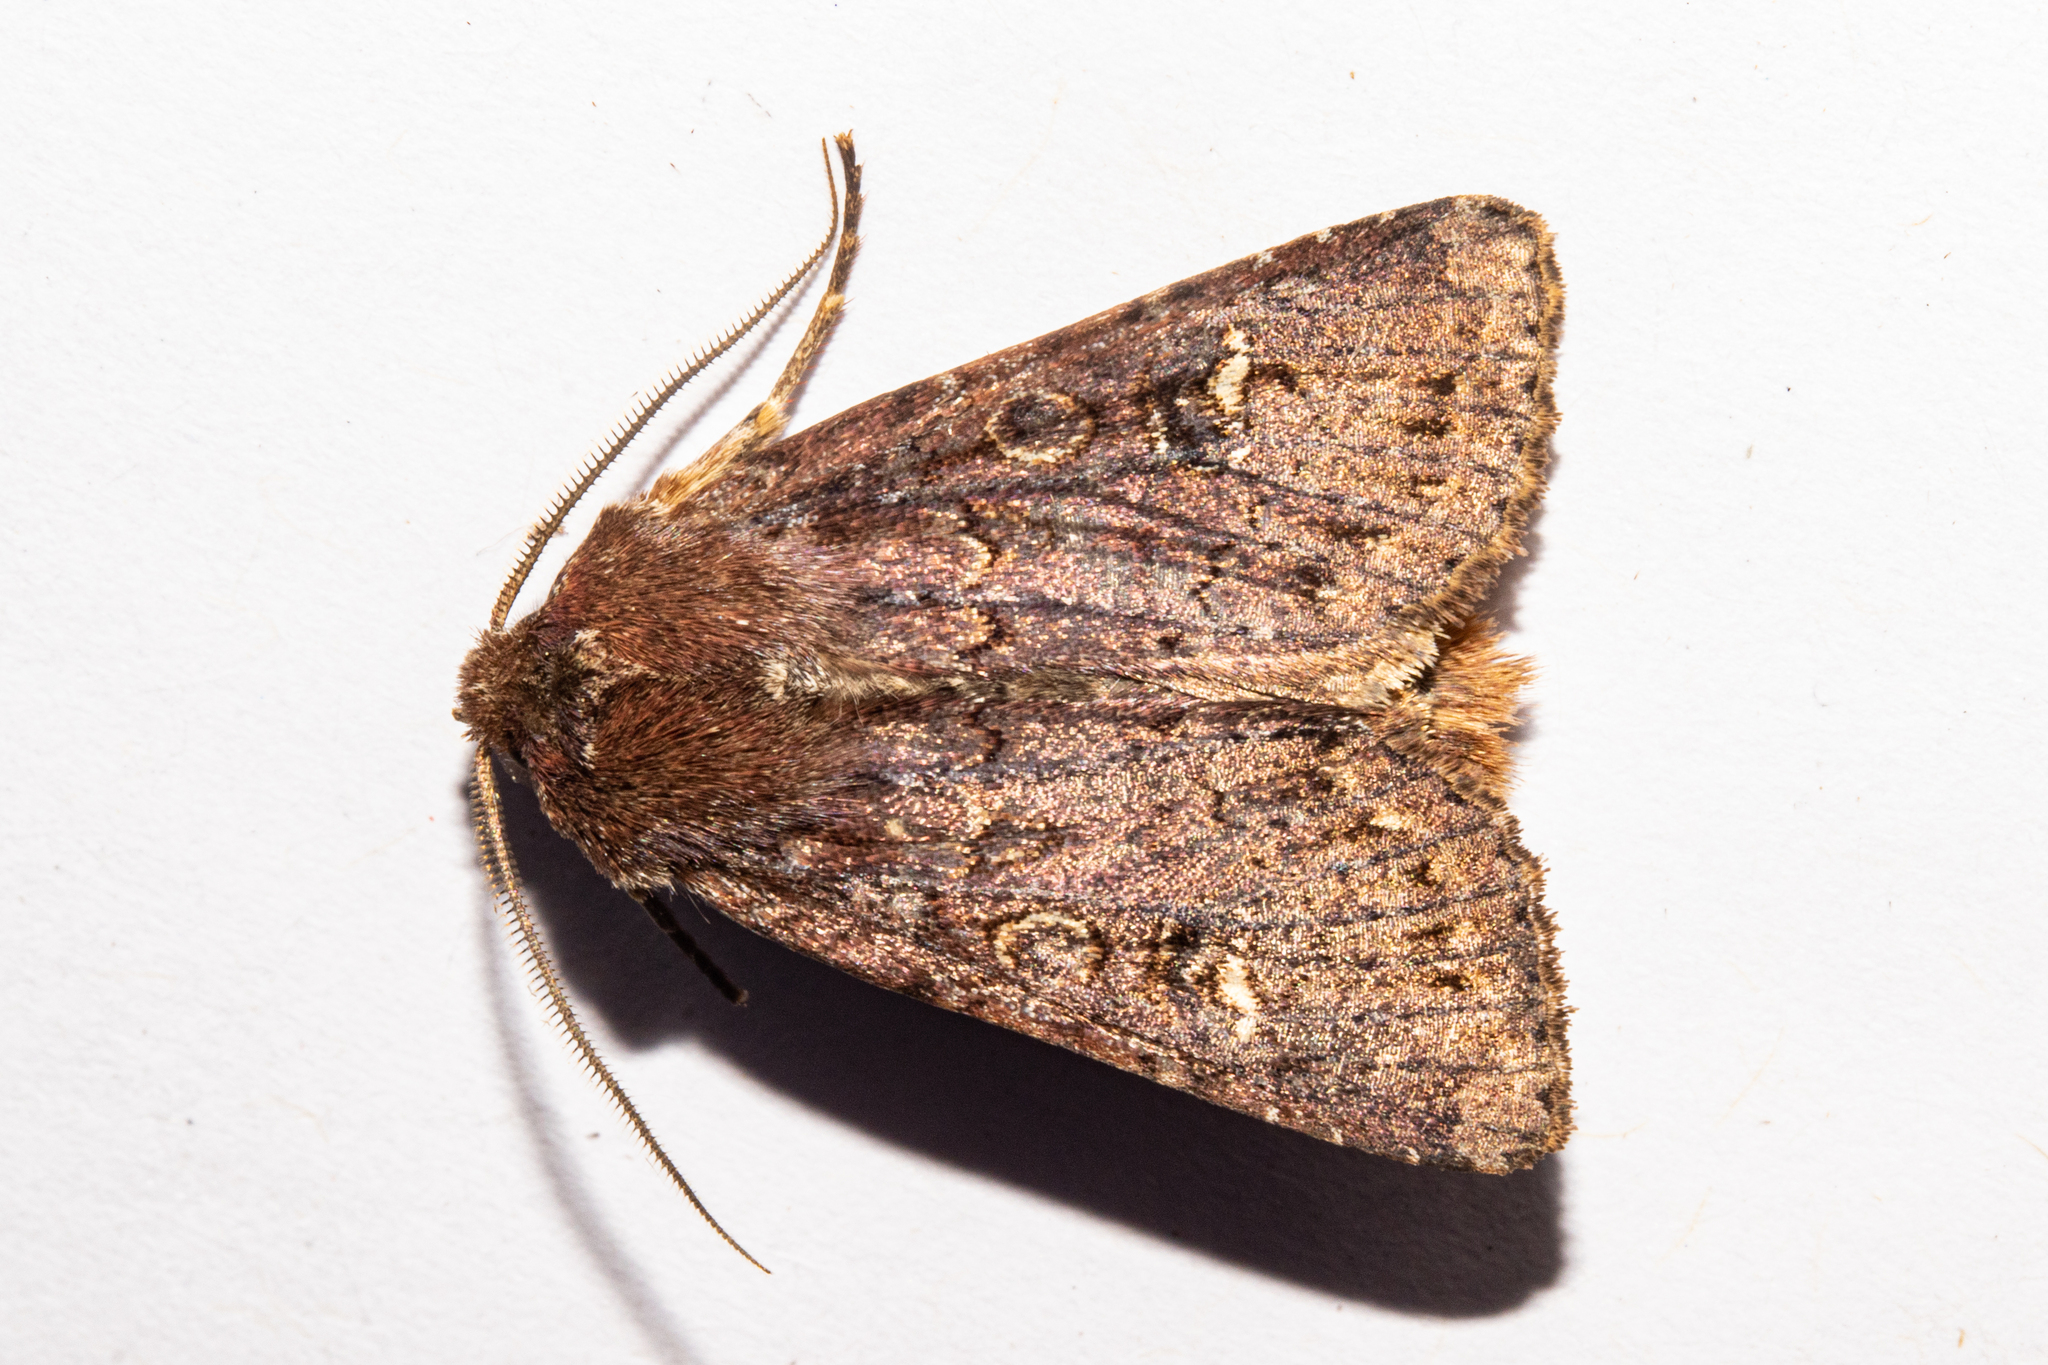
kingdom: Animalia
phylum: Arthropoda
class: Insecta
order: Lepidoptera
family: Noctuidae
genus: Ichneutica
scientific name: Ichneutica agorastis
